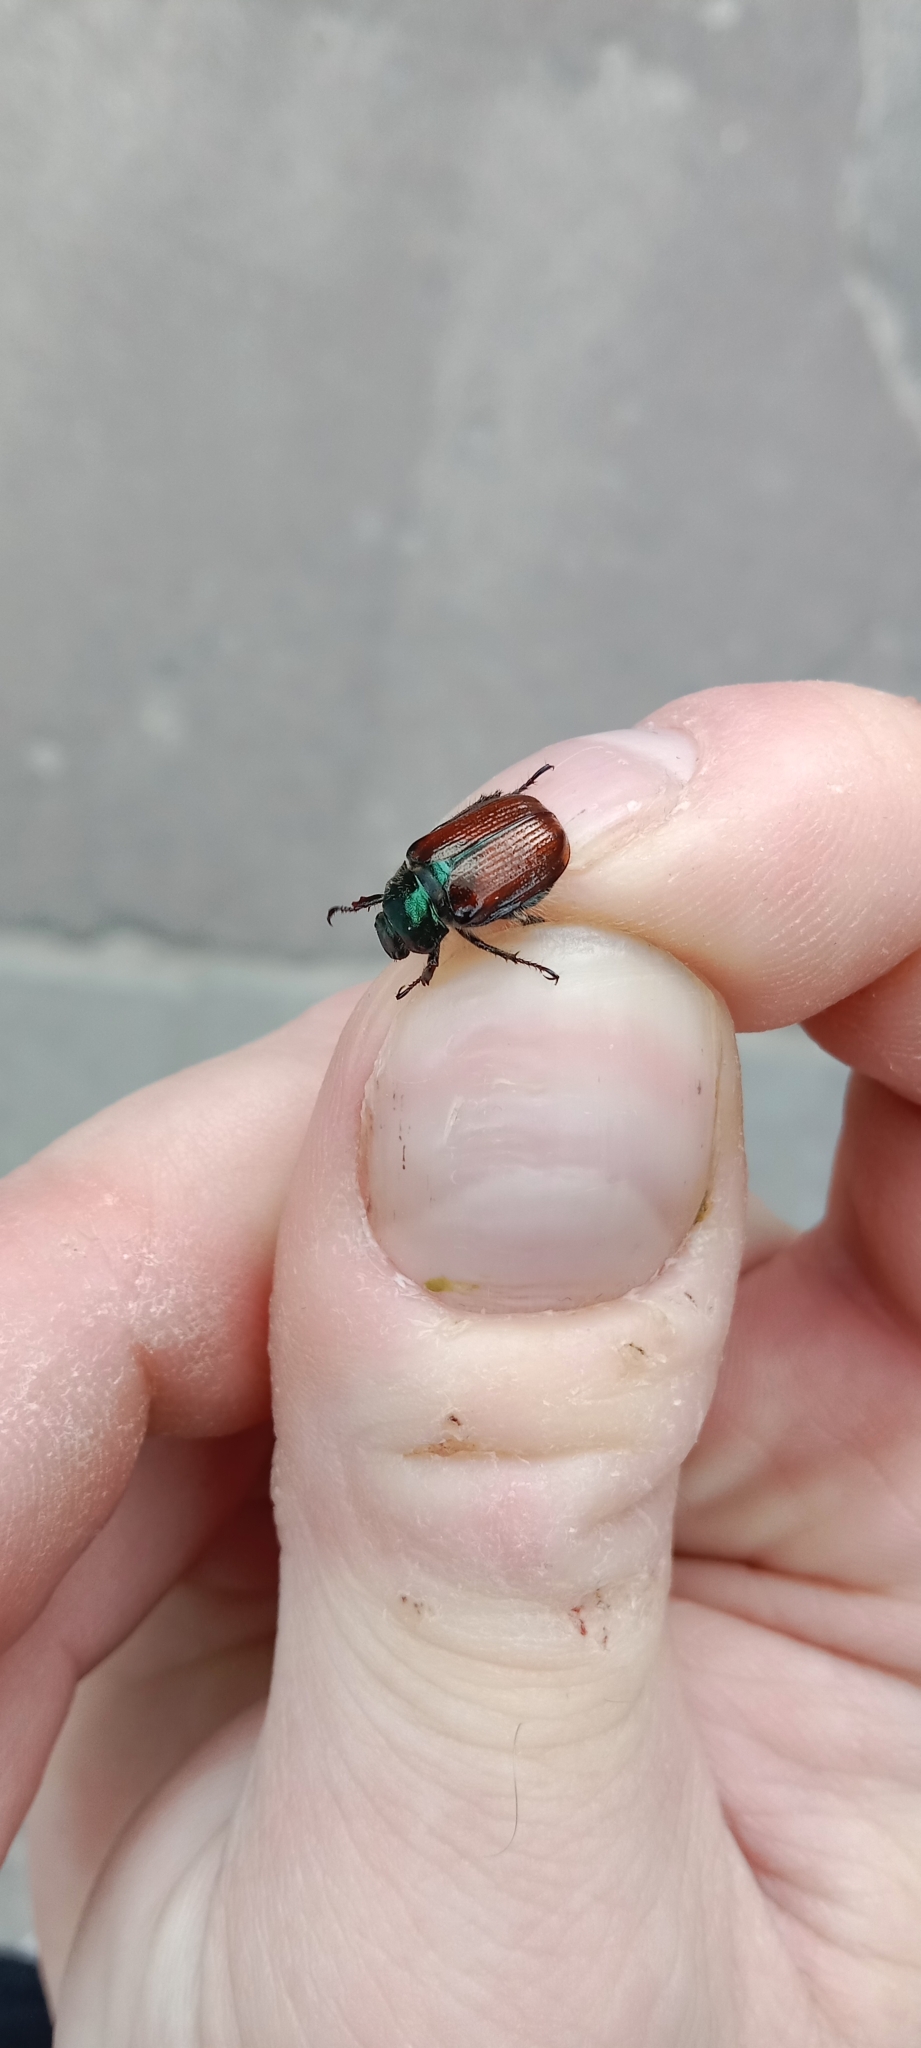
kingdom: Animalia
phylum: Arthropoda
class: Insecta
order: Coleoptera
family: Scarabaeidae
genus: Phyllopertha
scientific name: Phyllopertha horticola
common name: Garden chafer
